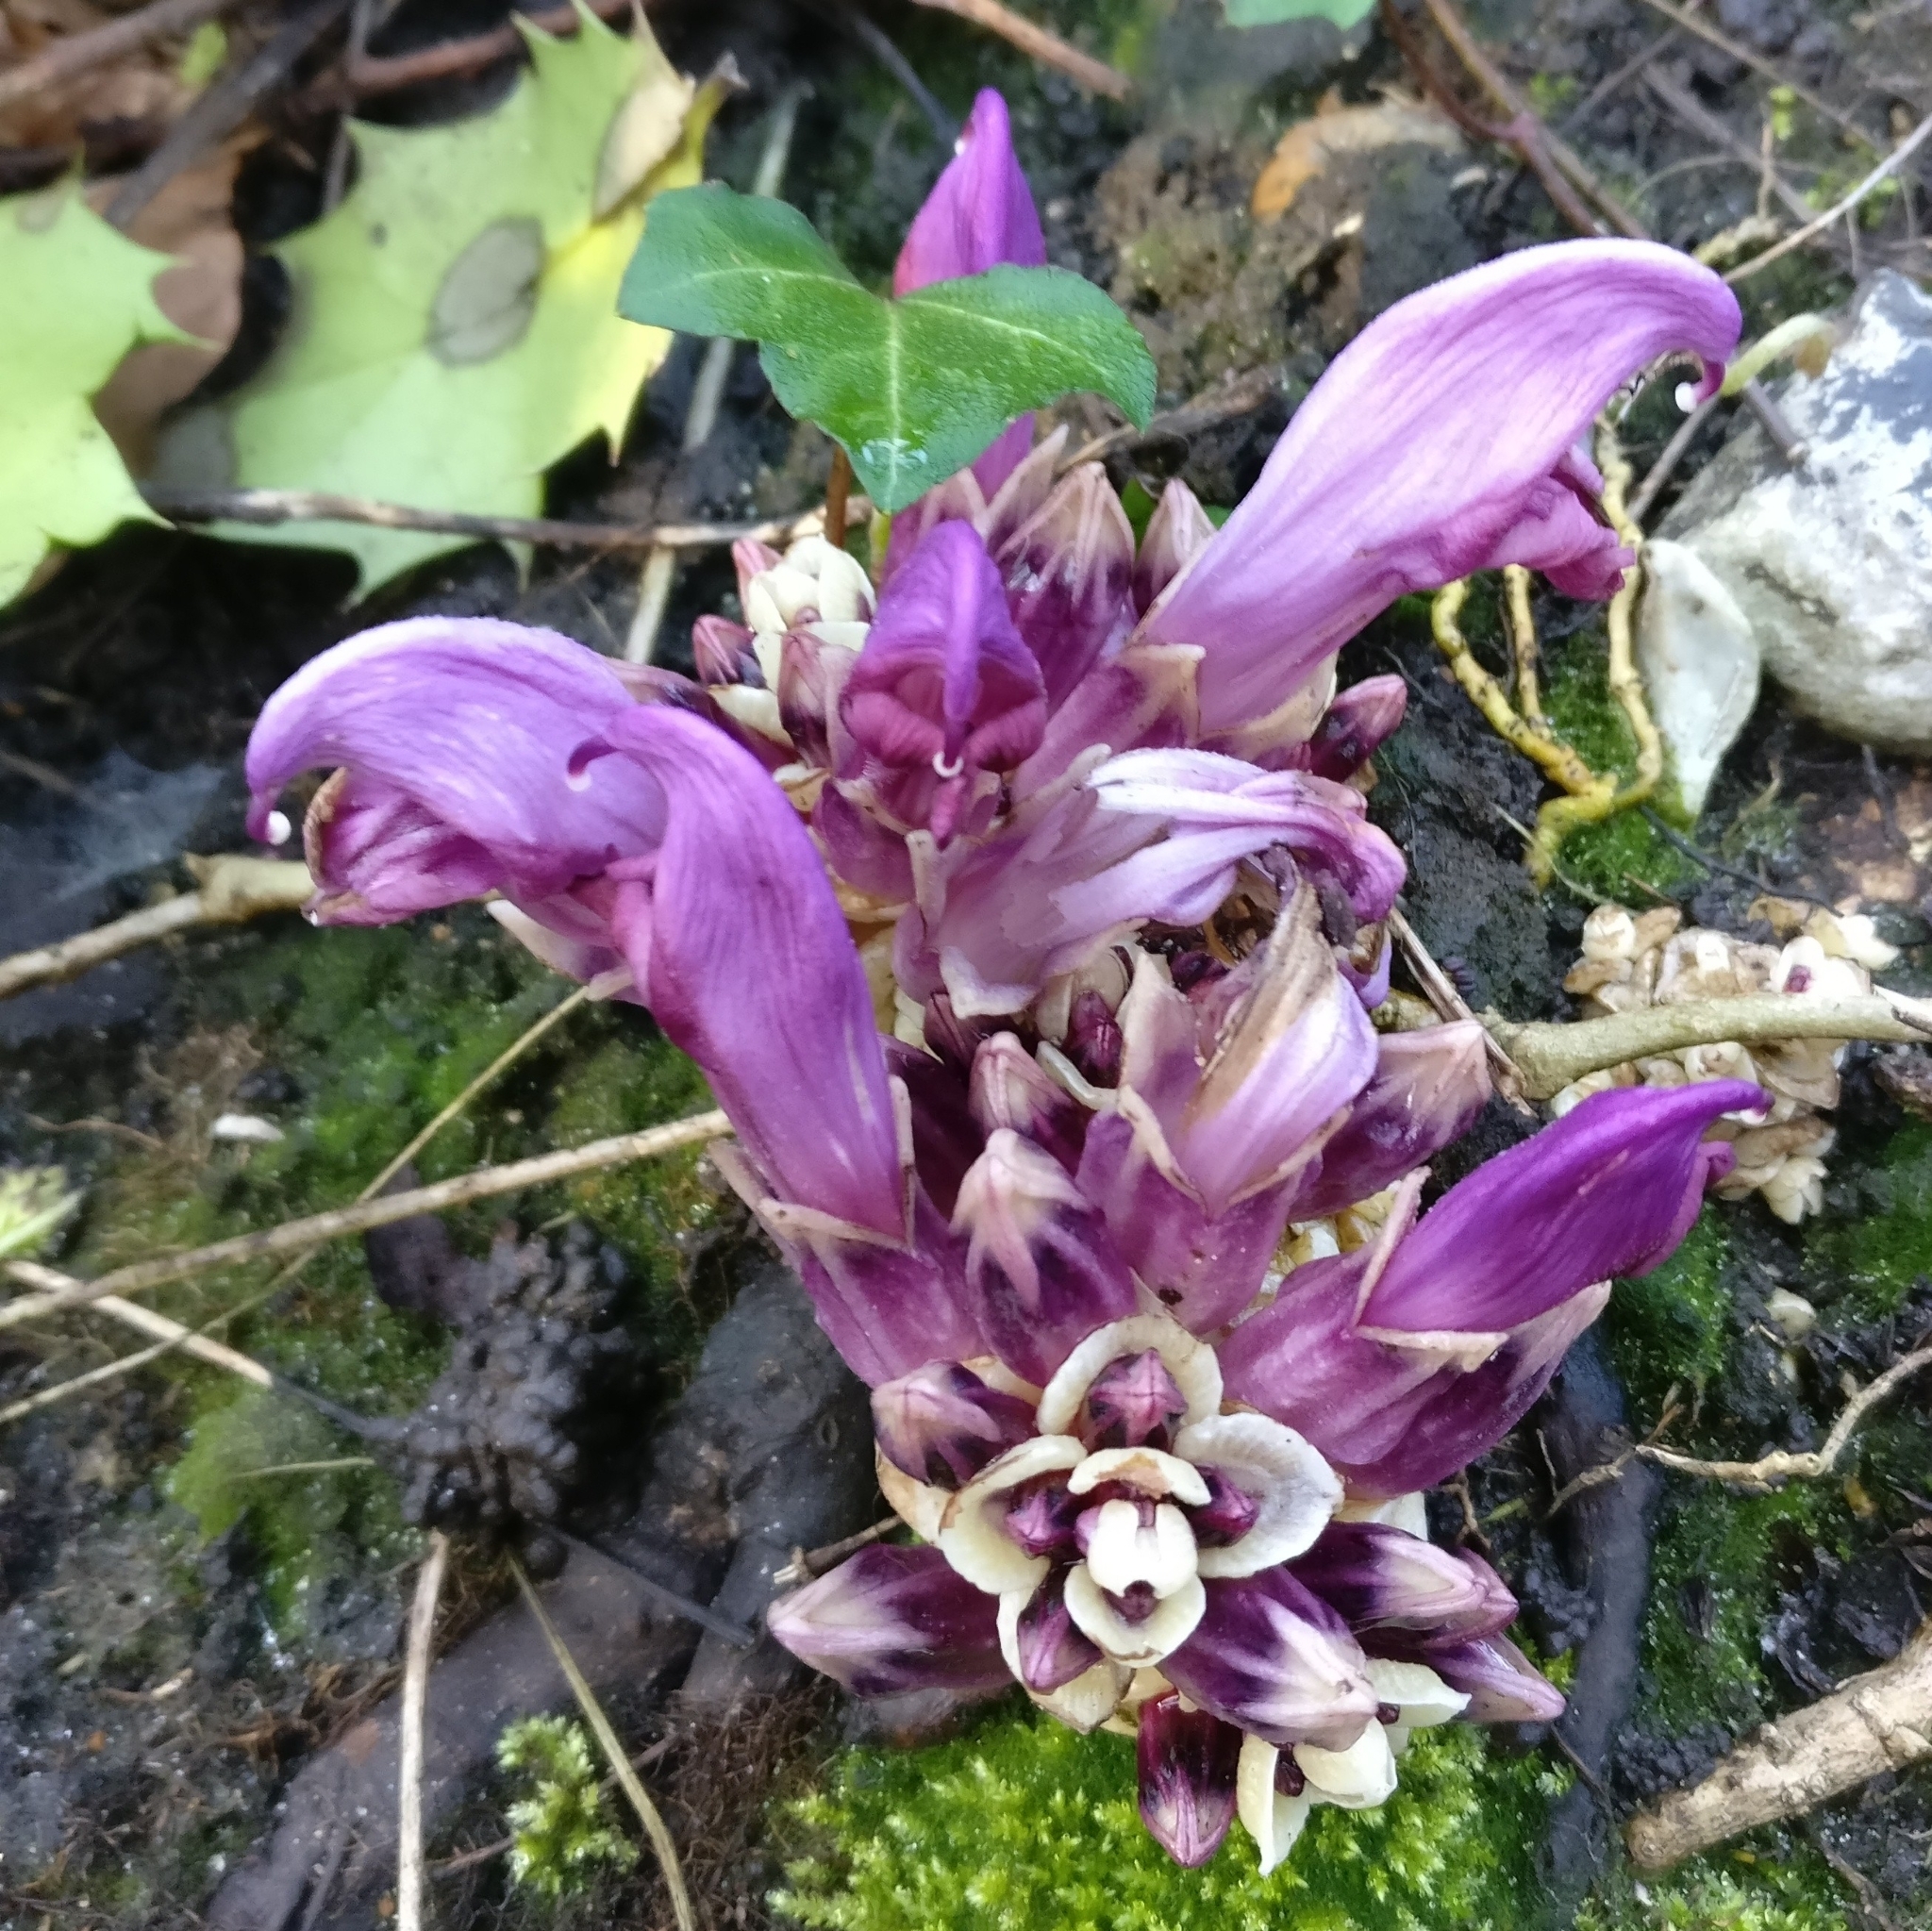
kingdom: Plantae
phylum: Tracheophyta
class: Magnoliopsida
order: Lamiales
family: Orobanchaceae
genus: Lathraea
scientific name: Lathraea clandestina
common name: Purple toothwort
